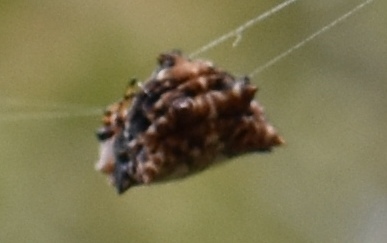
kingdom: Animalia
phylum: Arthropoda
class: Arachnida
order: Araneae
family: Araneidae
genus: Thelacantha
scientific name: Thelacantha brevispina
